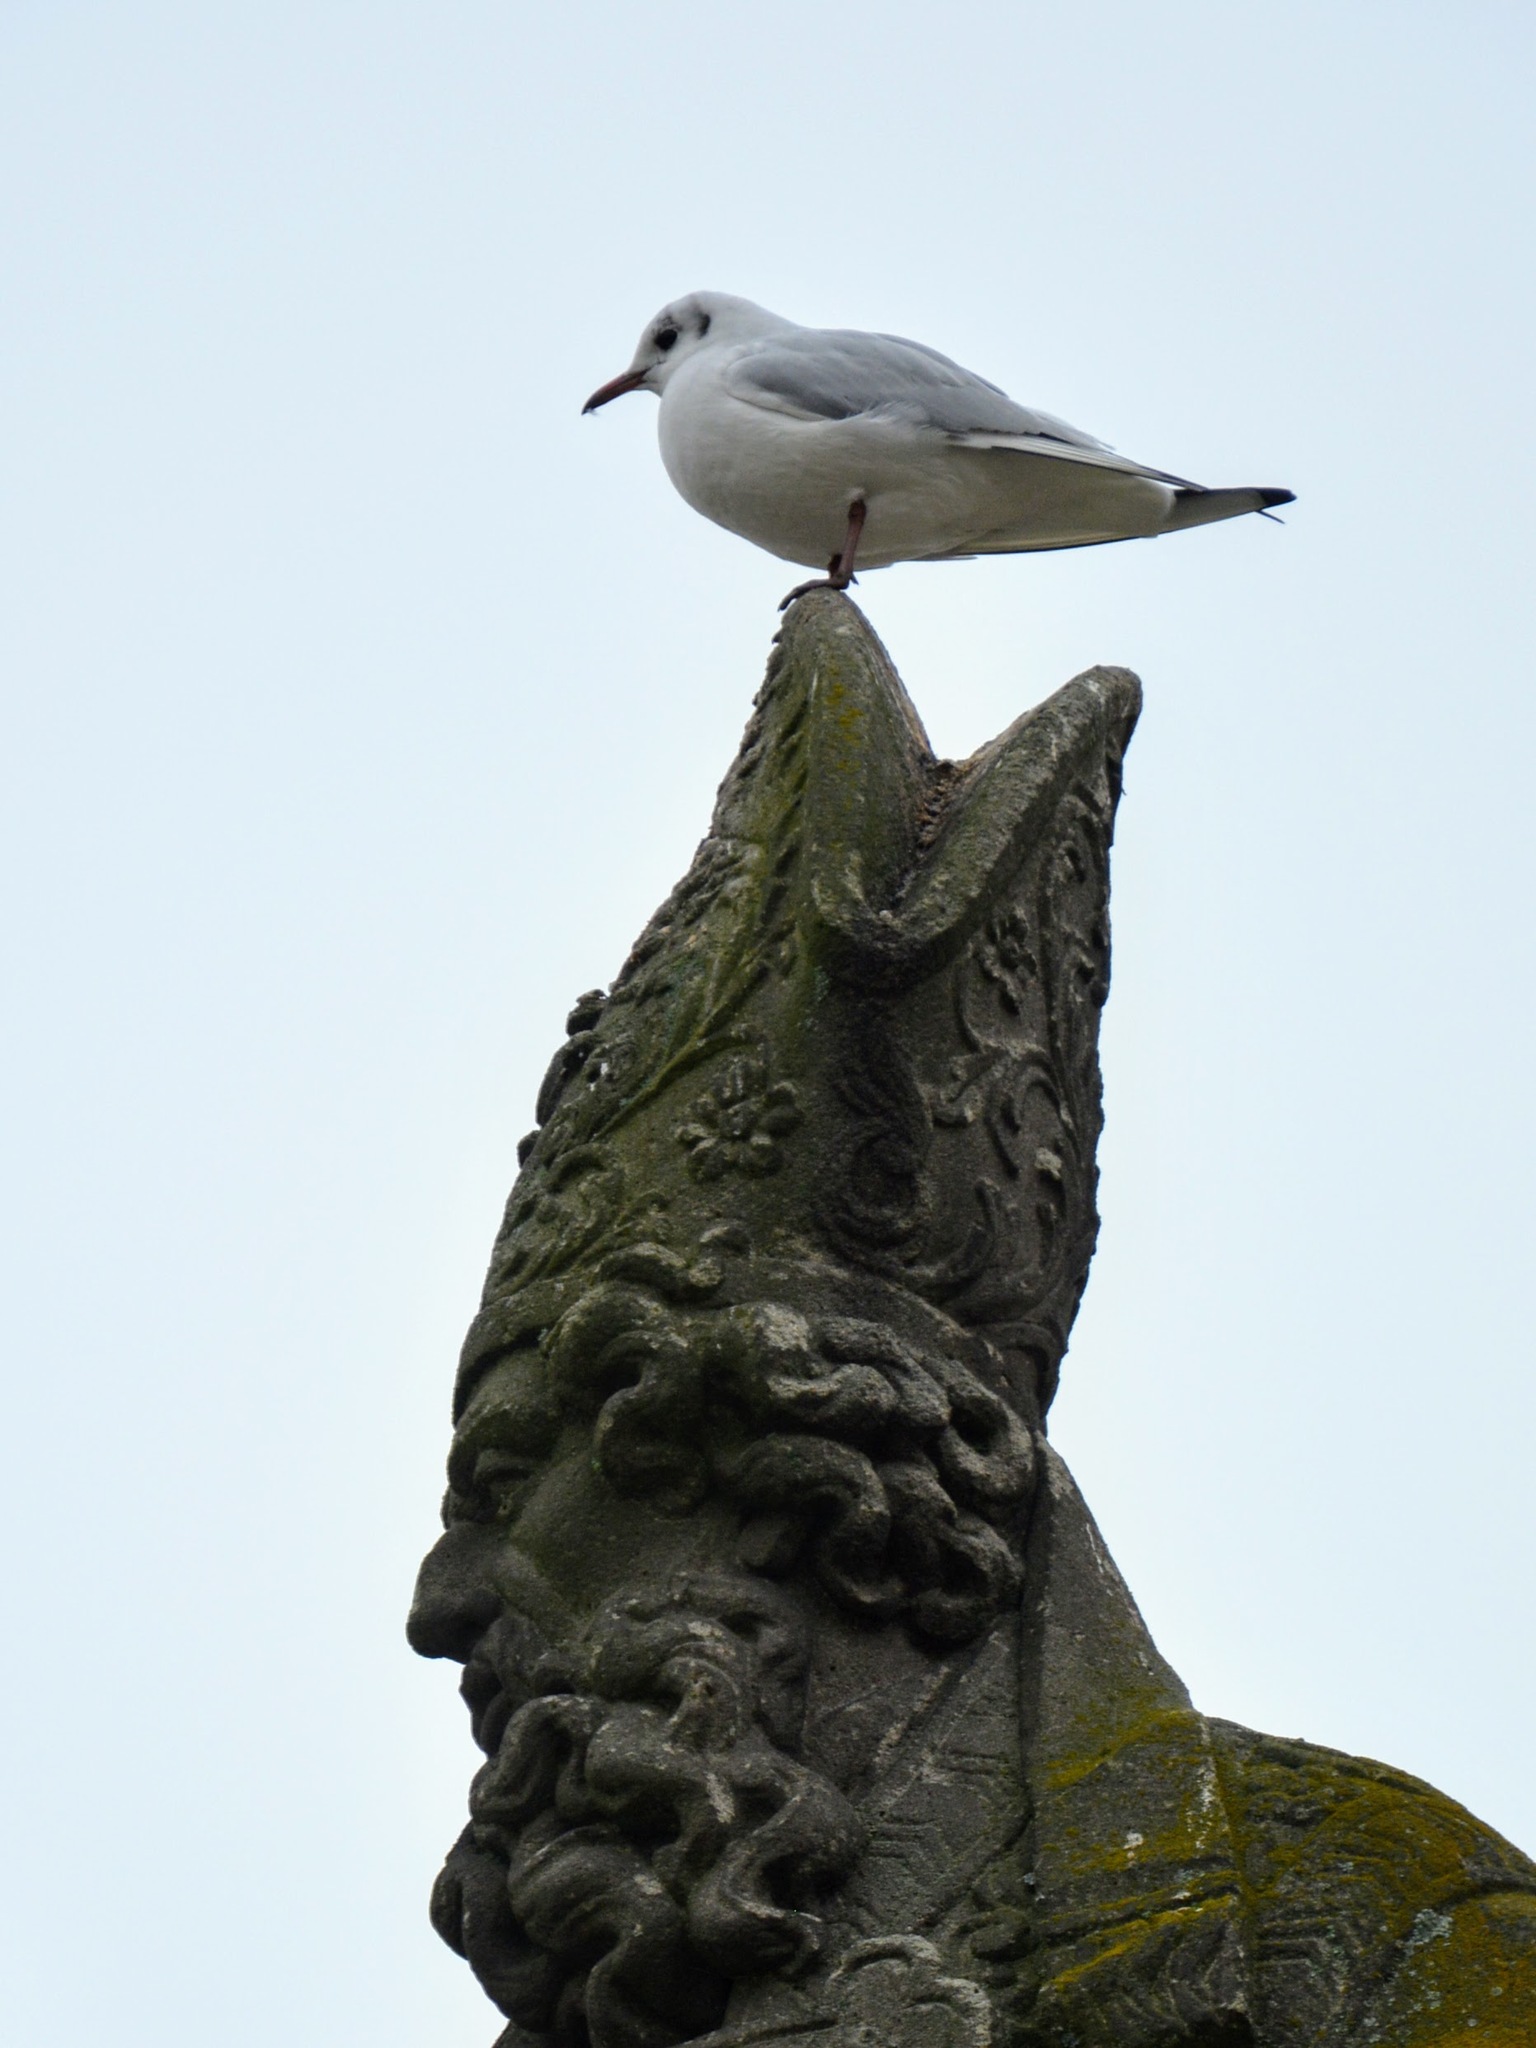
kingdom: Animalia
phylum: Chordata
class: Aves
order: Charadriiformes
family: Laridae
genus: Chroicocephalus
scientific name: Chroicocephalus ridibundus
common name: Black-headed gull
